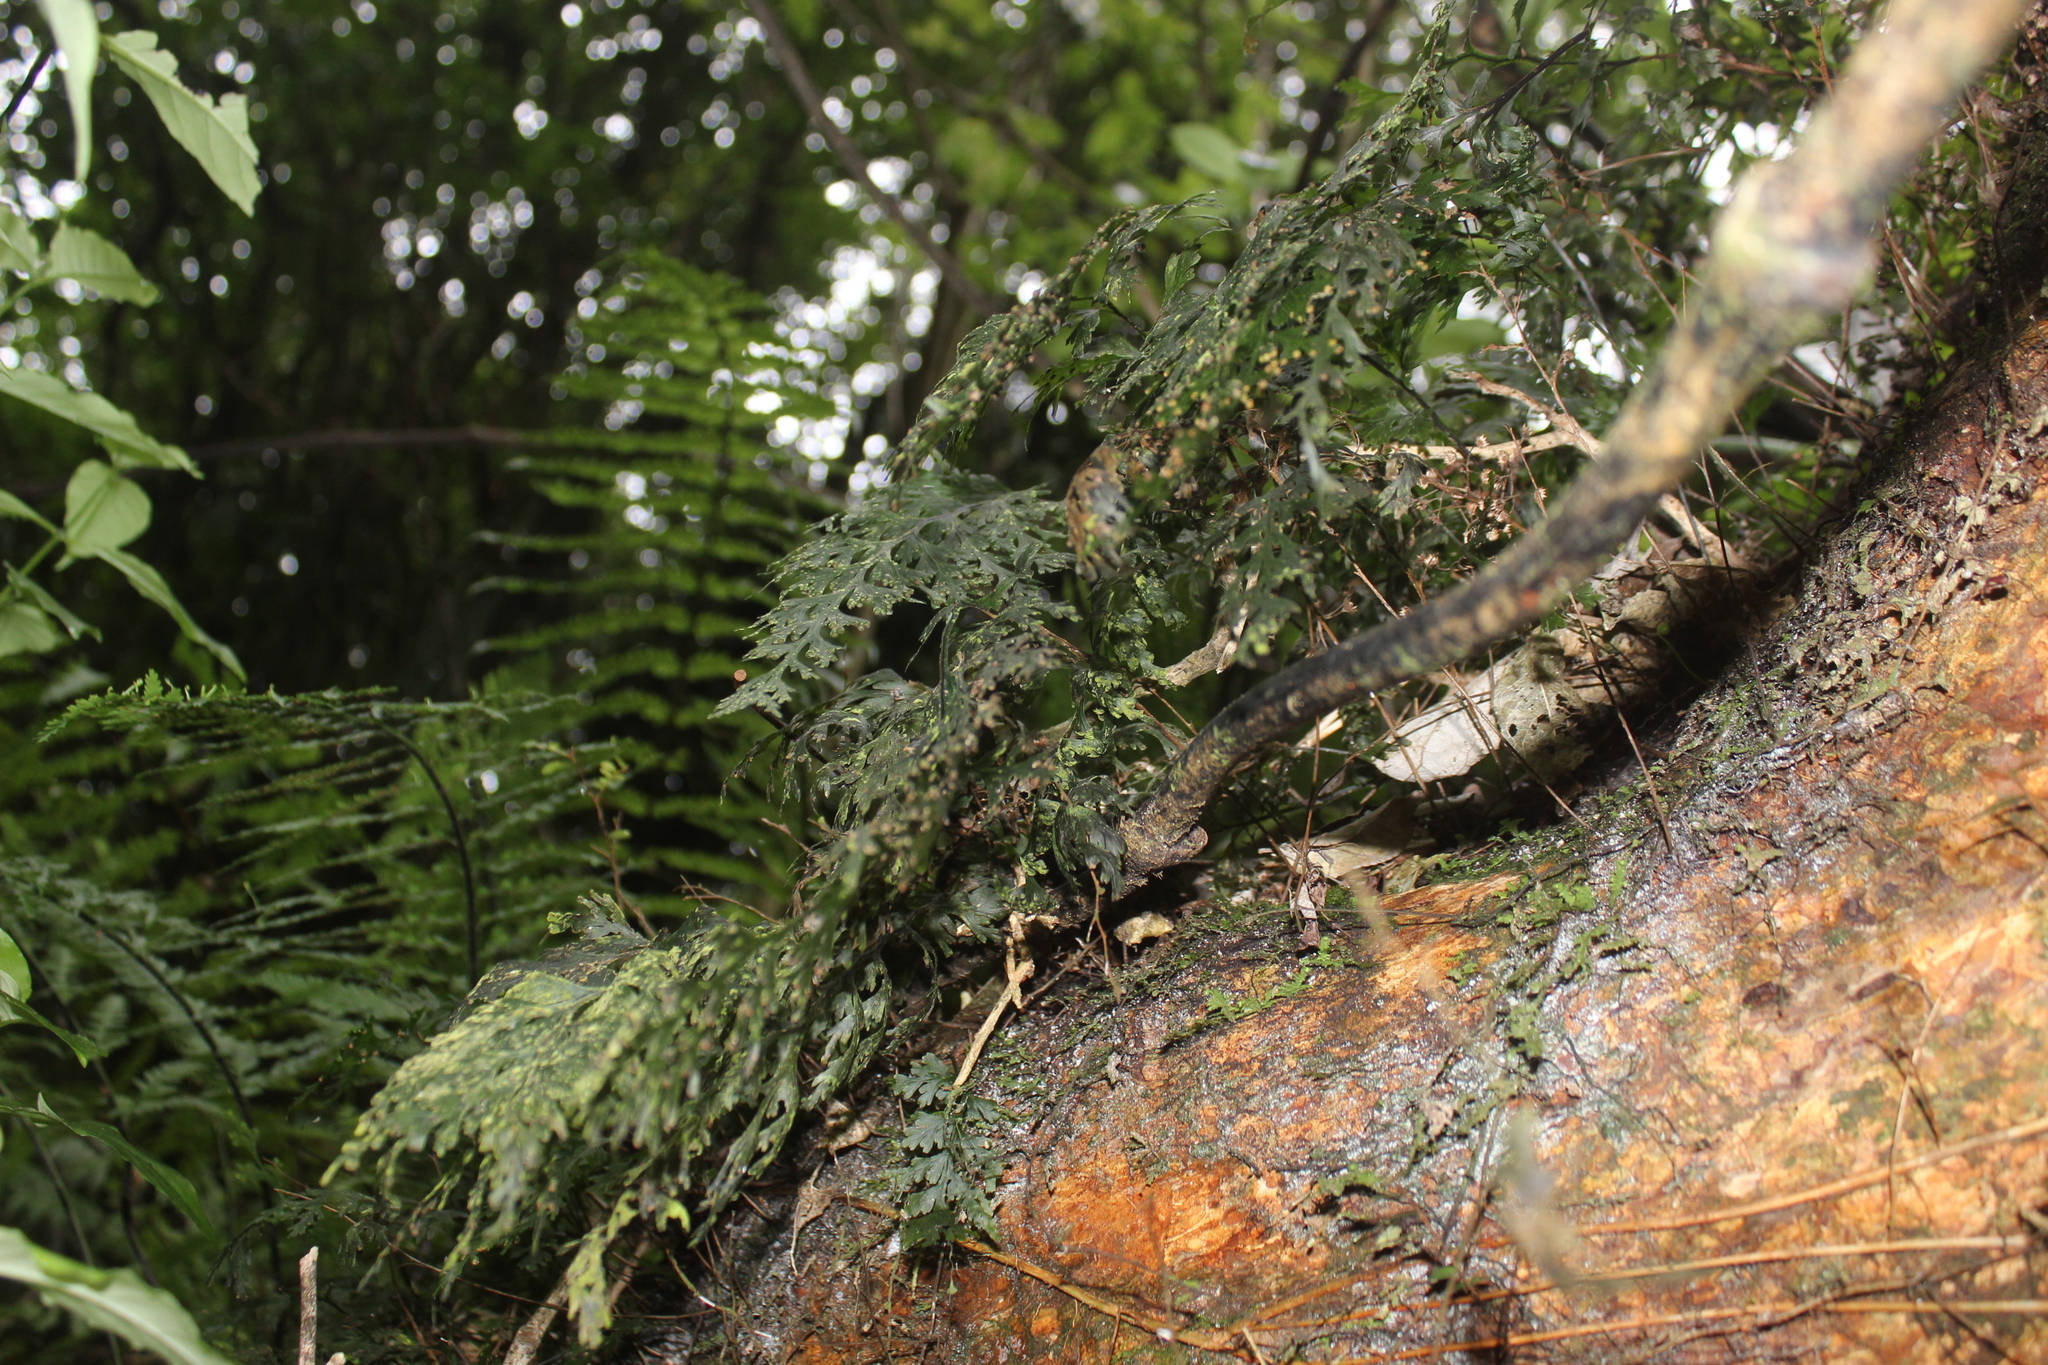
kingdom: Plantae
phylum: Tracheophyta
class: Polypodiopsida
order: Hymenophyllales
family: Hymenophyllaceae
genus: Hymenophyllum
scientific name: Hymenophyllum dilatatum
